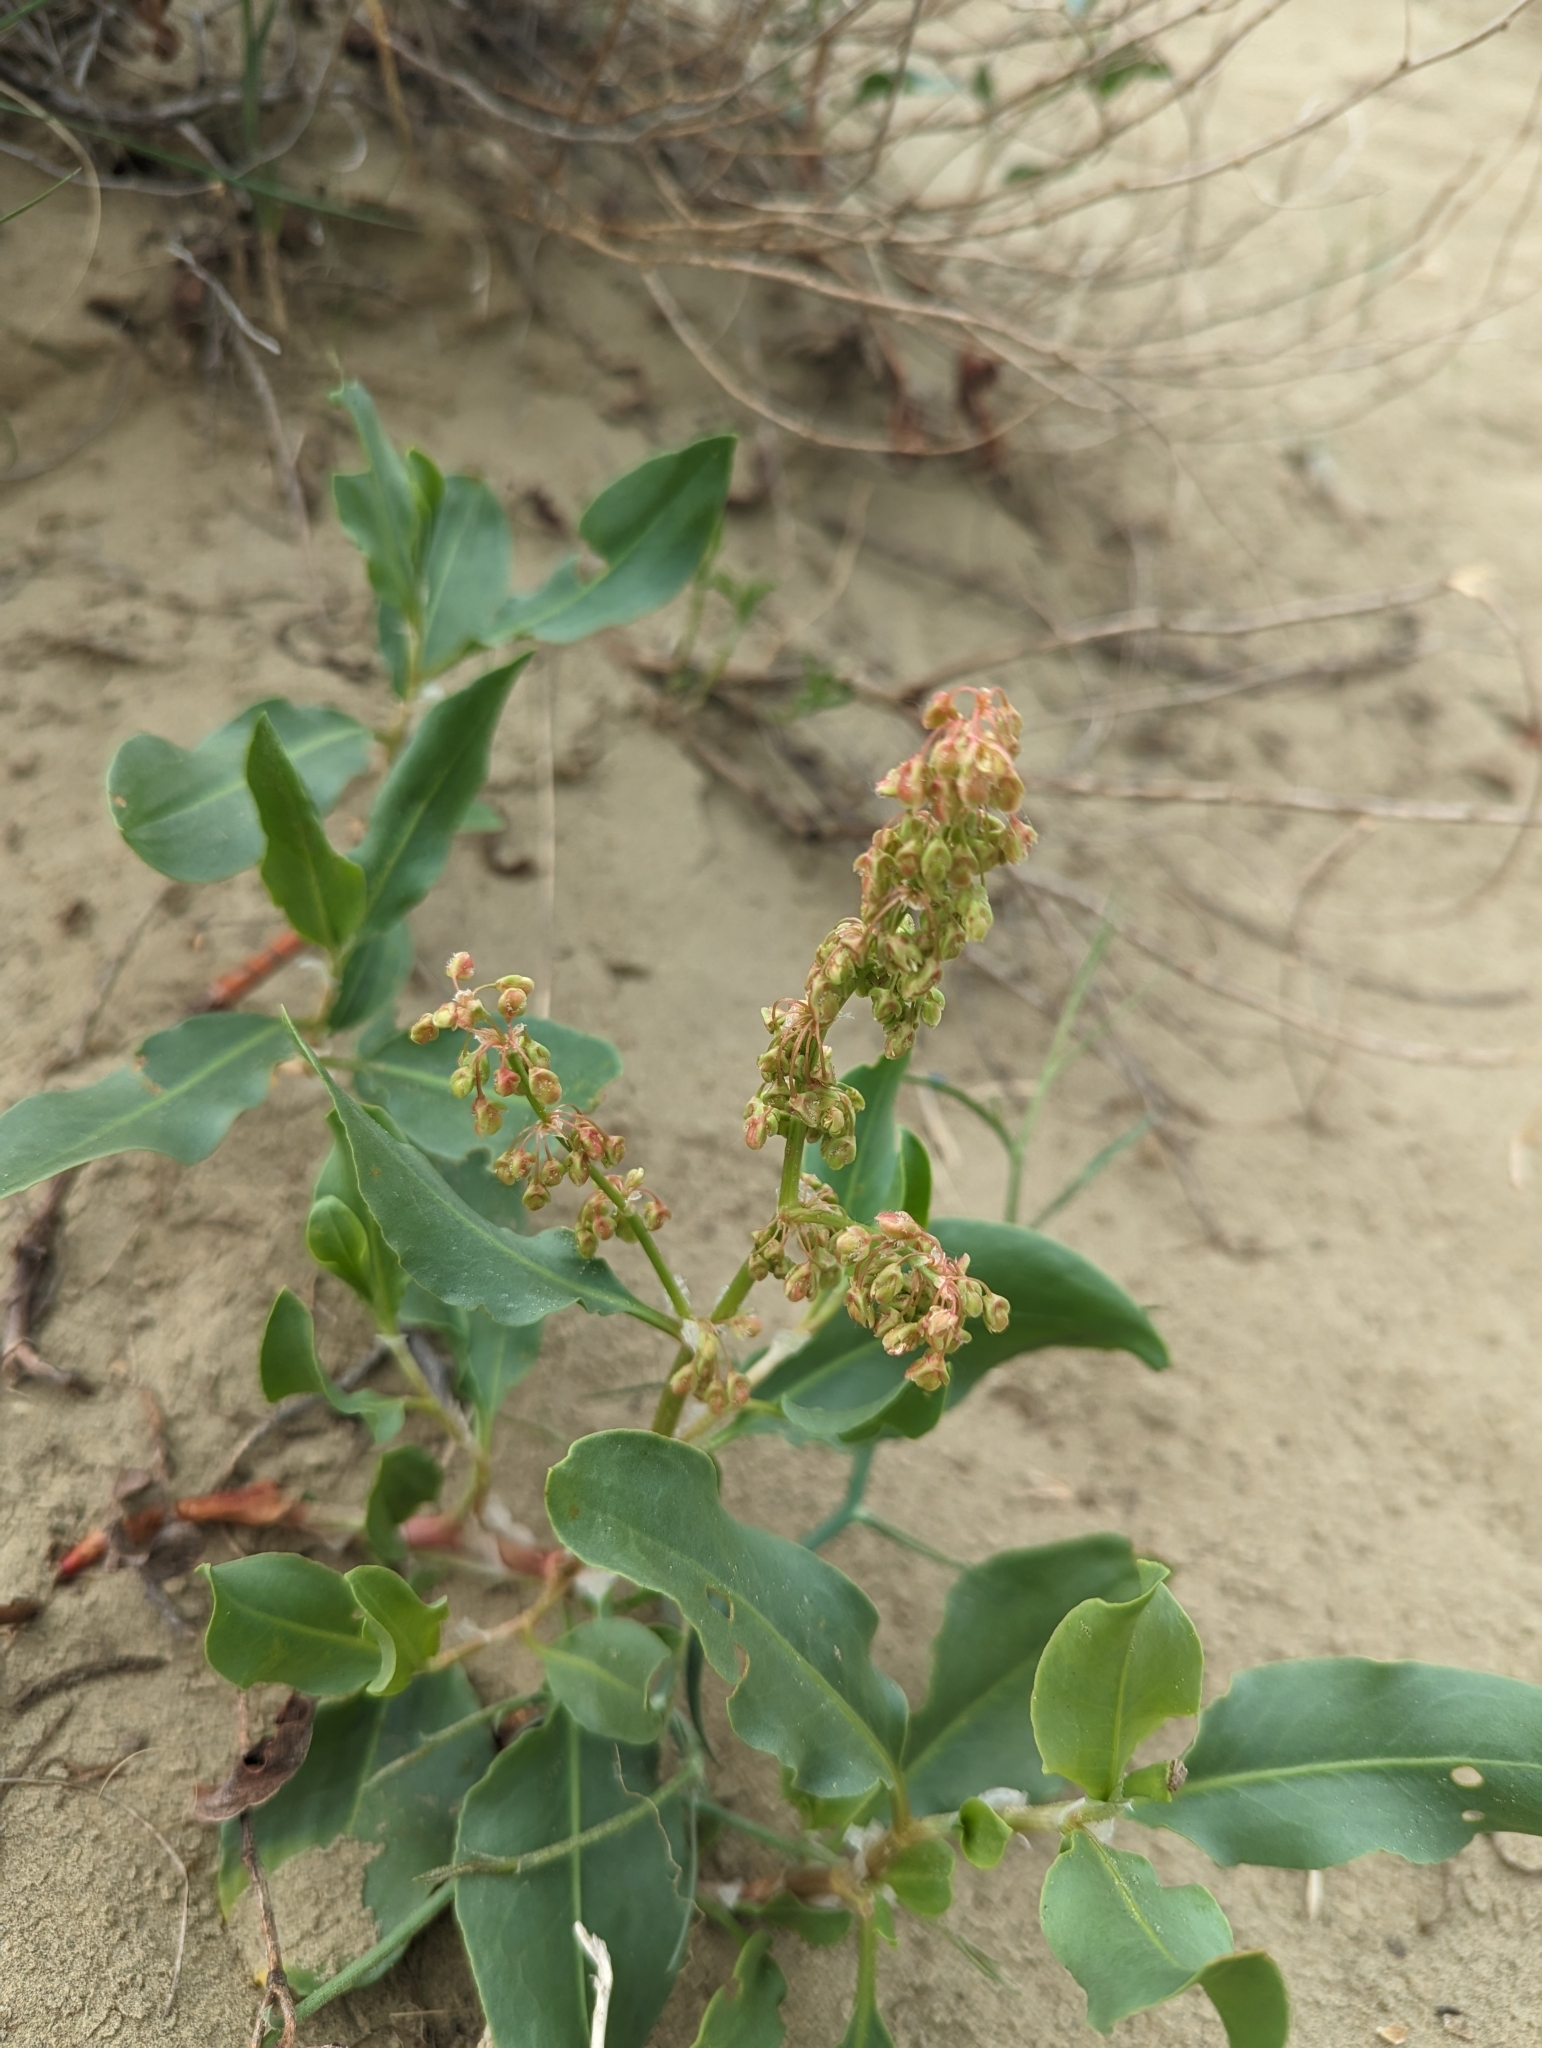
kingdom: Plantae
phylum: Tracheophyta
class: Magnoliopsida
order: Caryophyllales
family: Polygonaceae
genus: Rumex
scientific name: Rumex venosus
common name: Winged dock
